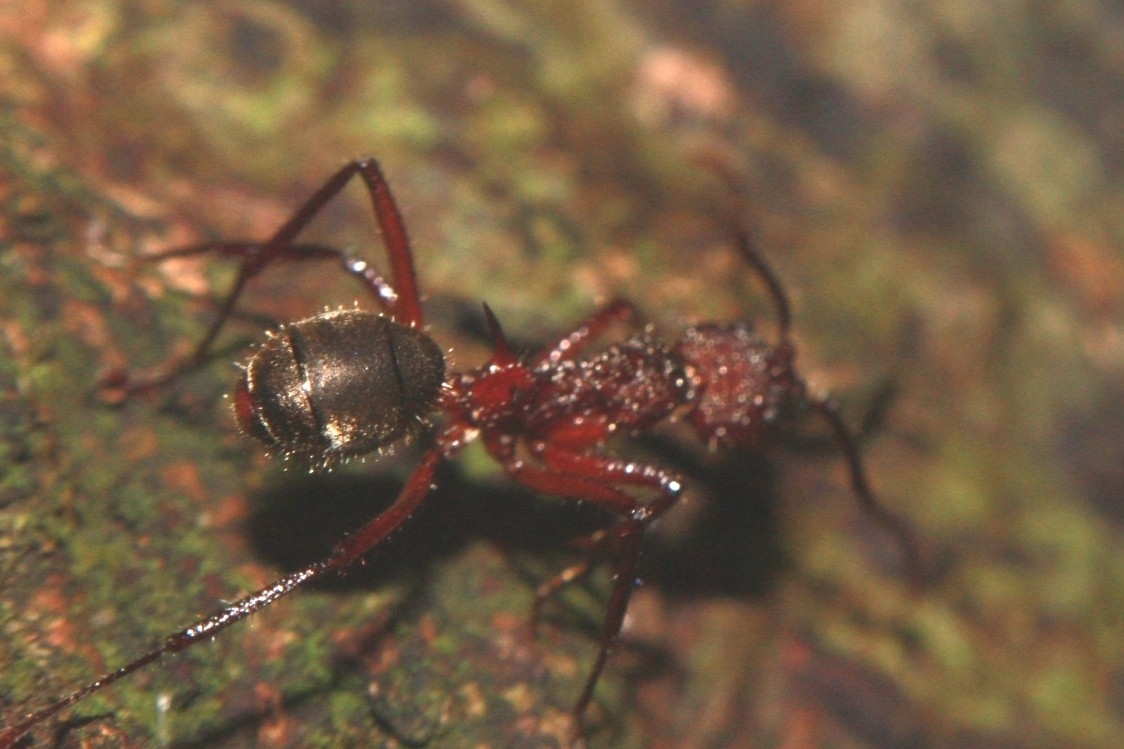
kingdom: Animalia
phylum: Arthropoda
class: Insecta
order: Hymenoptera
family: Formicidae
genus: Dolichoderus
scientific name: Dolichoderus decollatus
